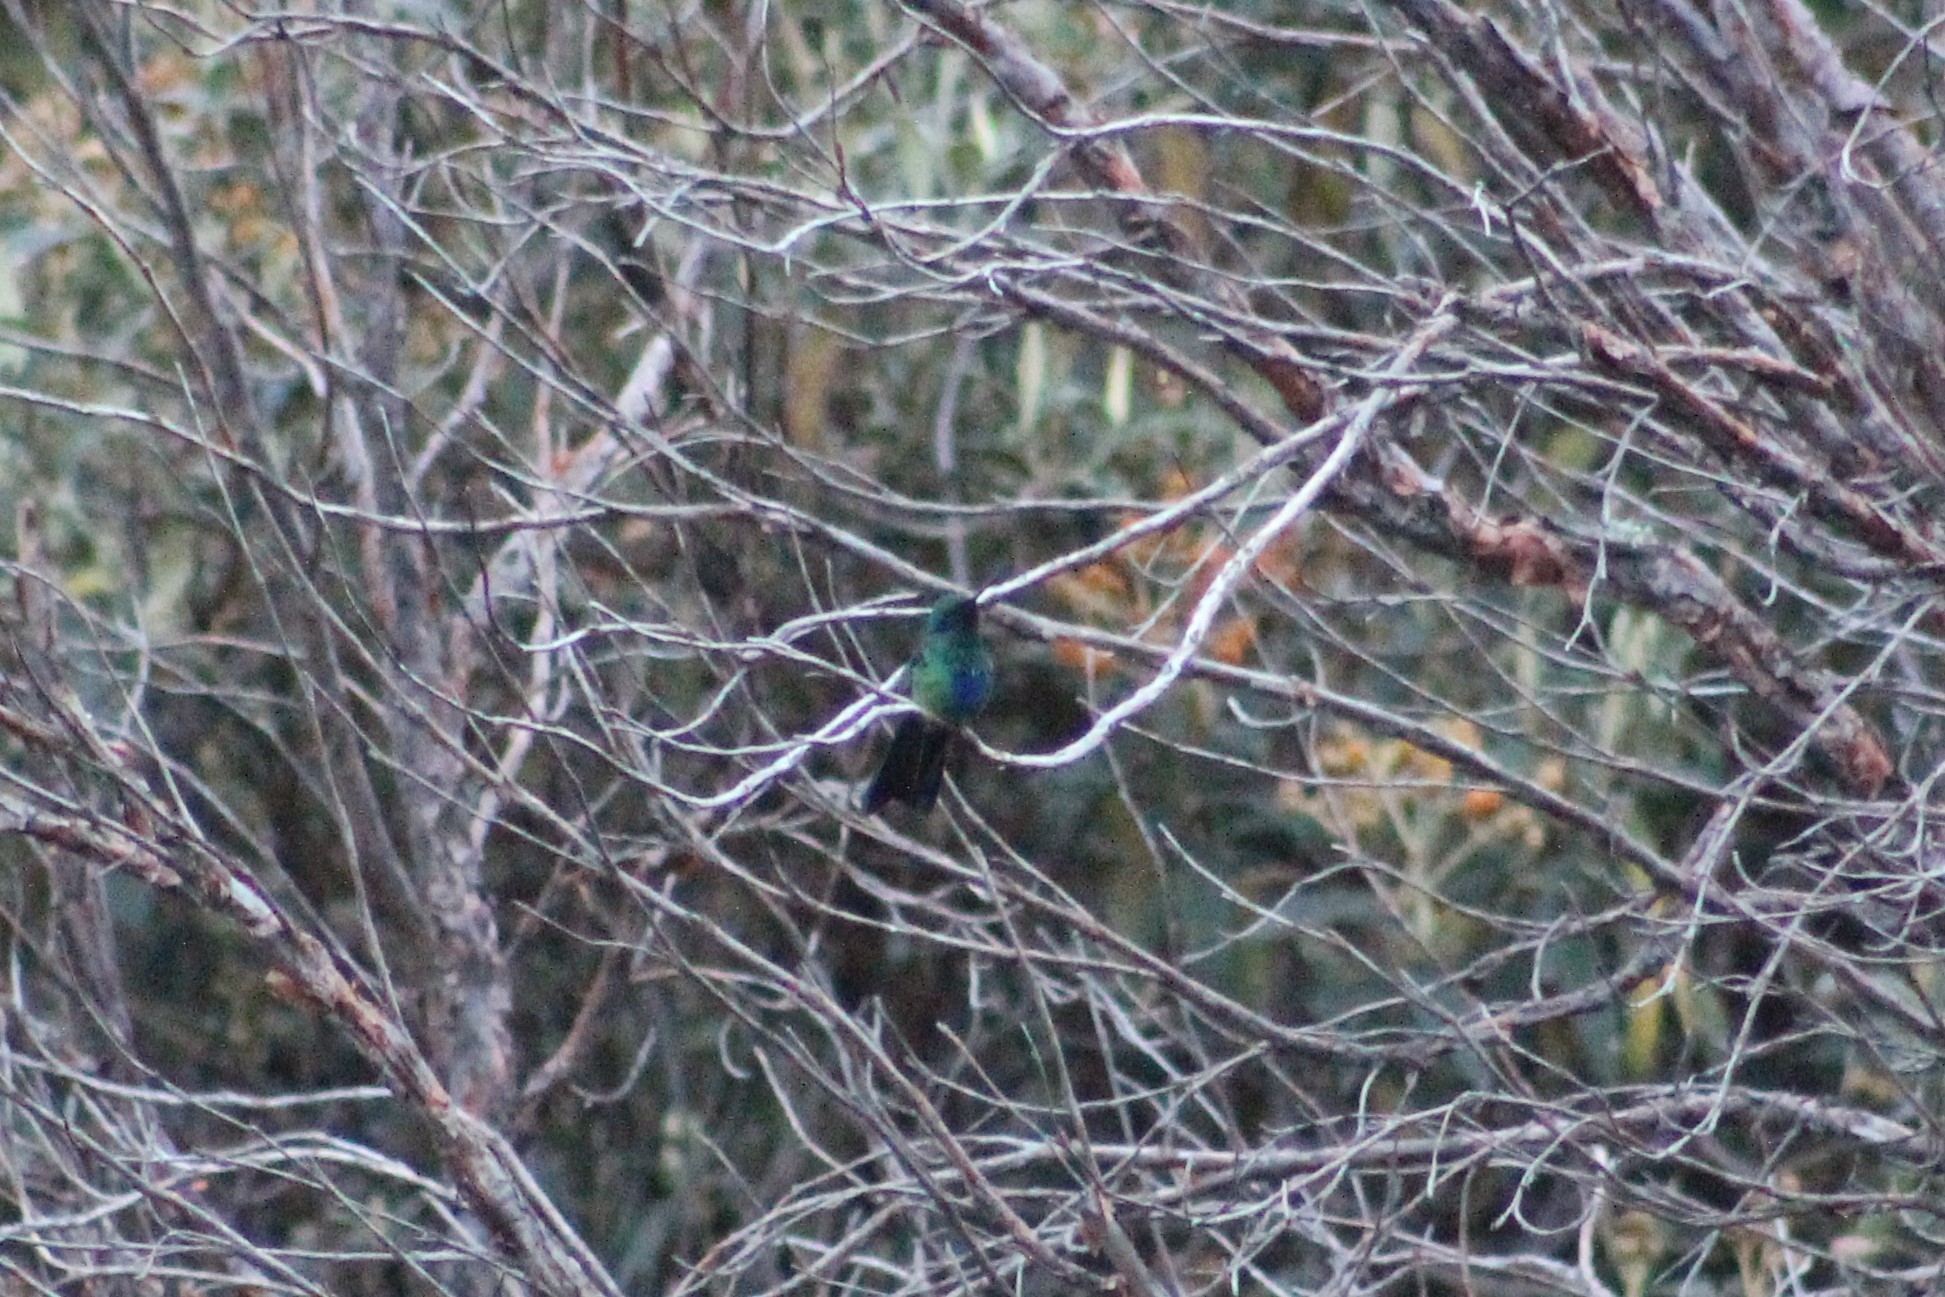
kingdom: Animalia
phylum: Chordata
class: Aves
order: Apodiformes
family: Trochilidae
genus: Colibri
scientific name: Colibri coruscans
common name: Sparkling violetear
